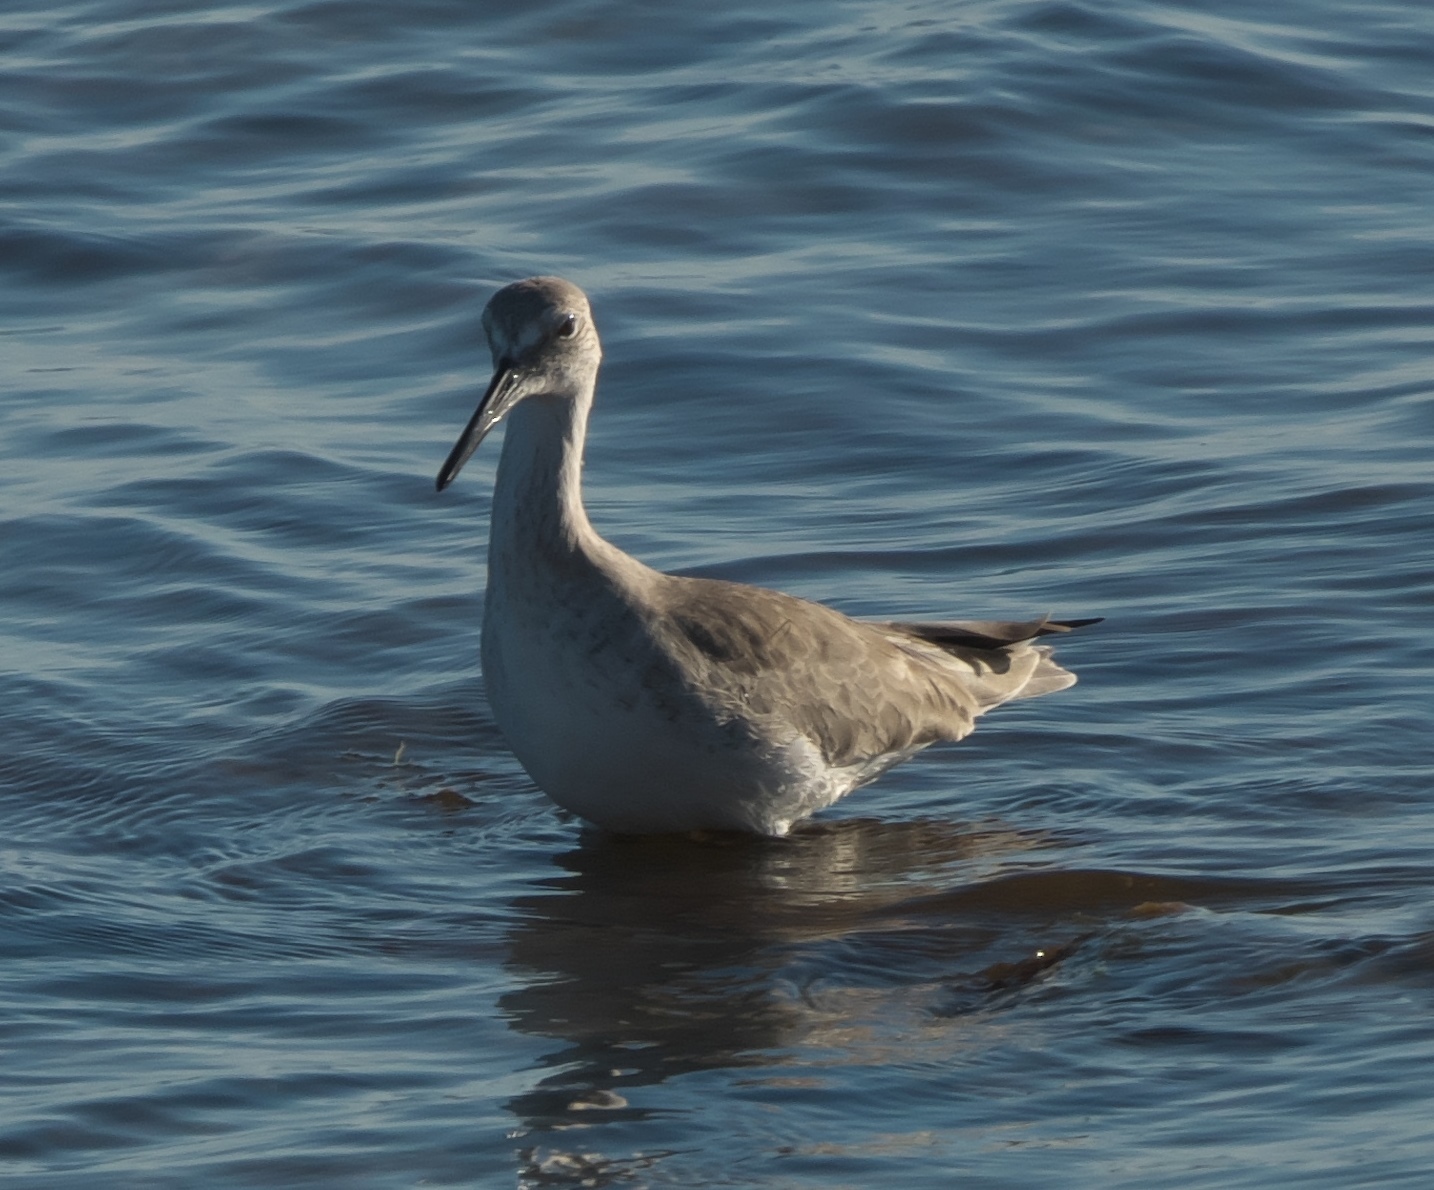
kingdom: Animalia
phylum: Chordata
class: Aves
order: Charadriiformes
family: Scolopacidae
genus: Tringa
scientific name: Tringa semipalmata
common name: Willet
